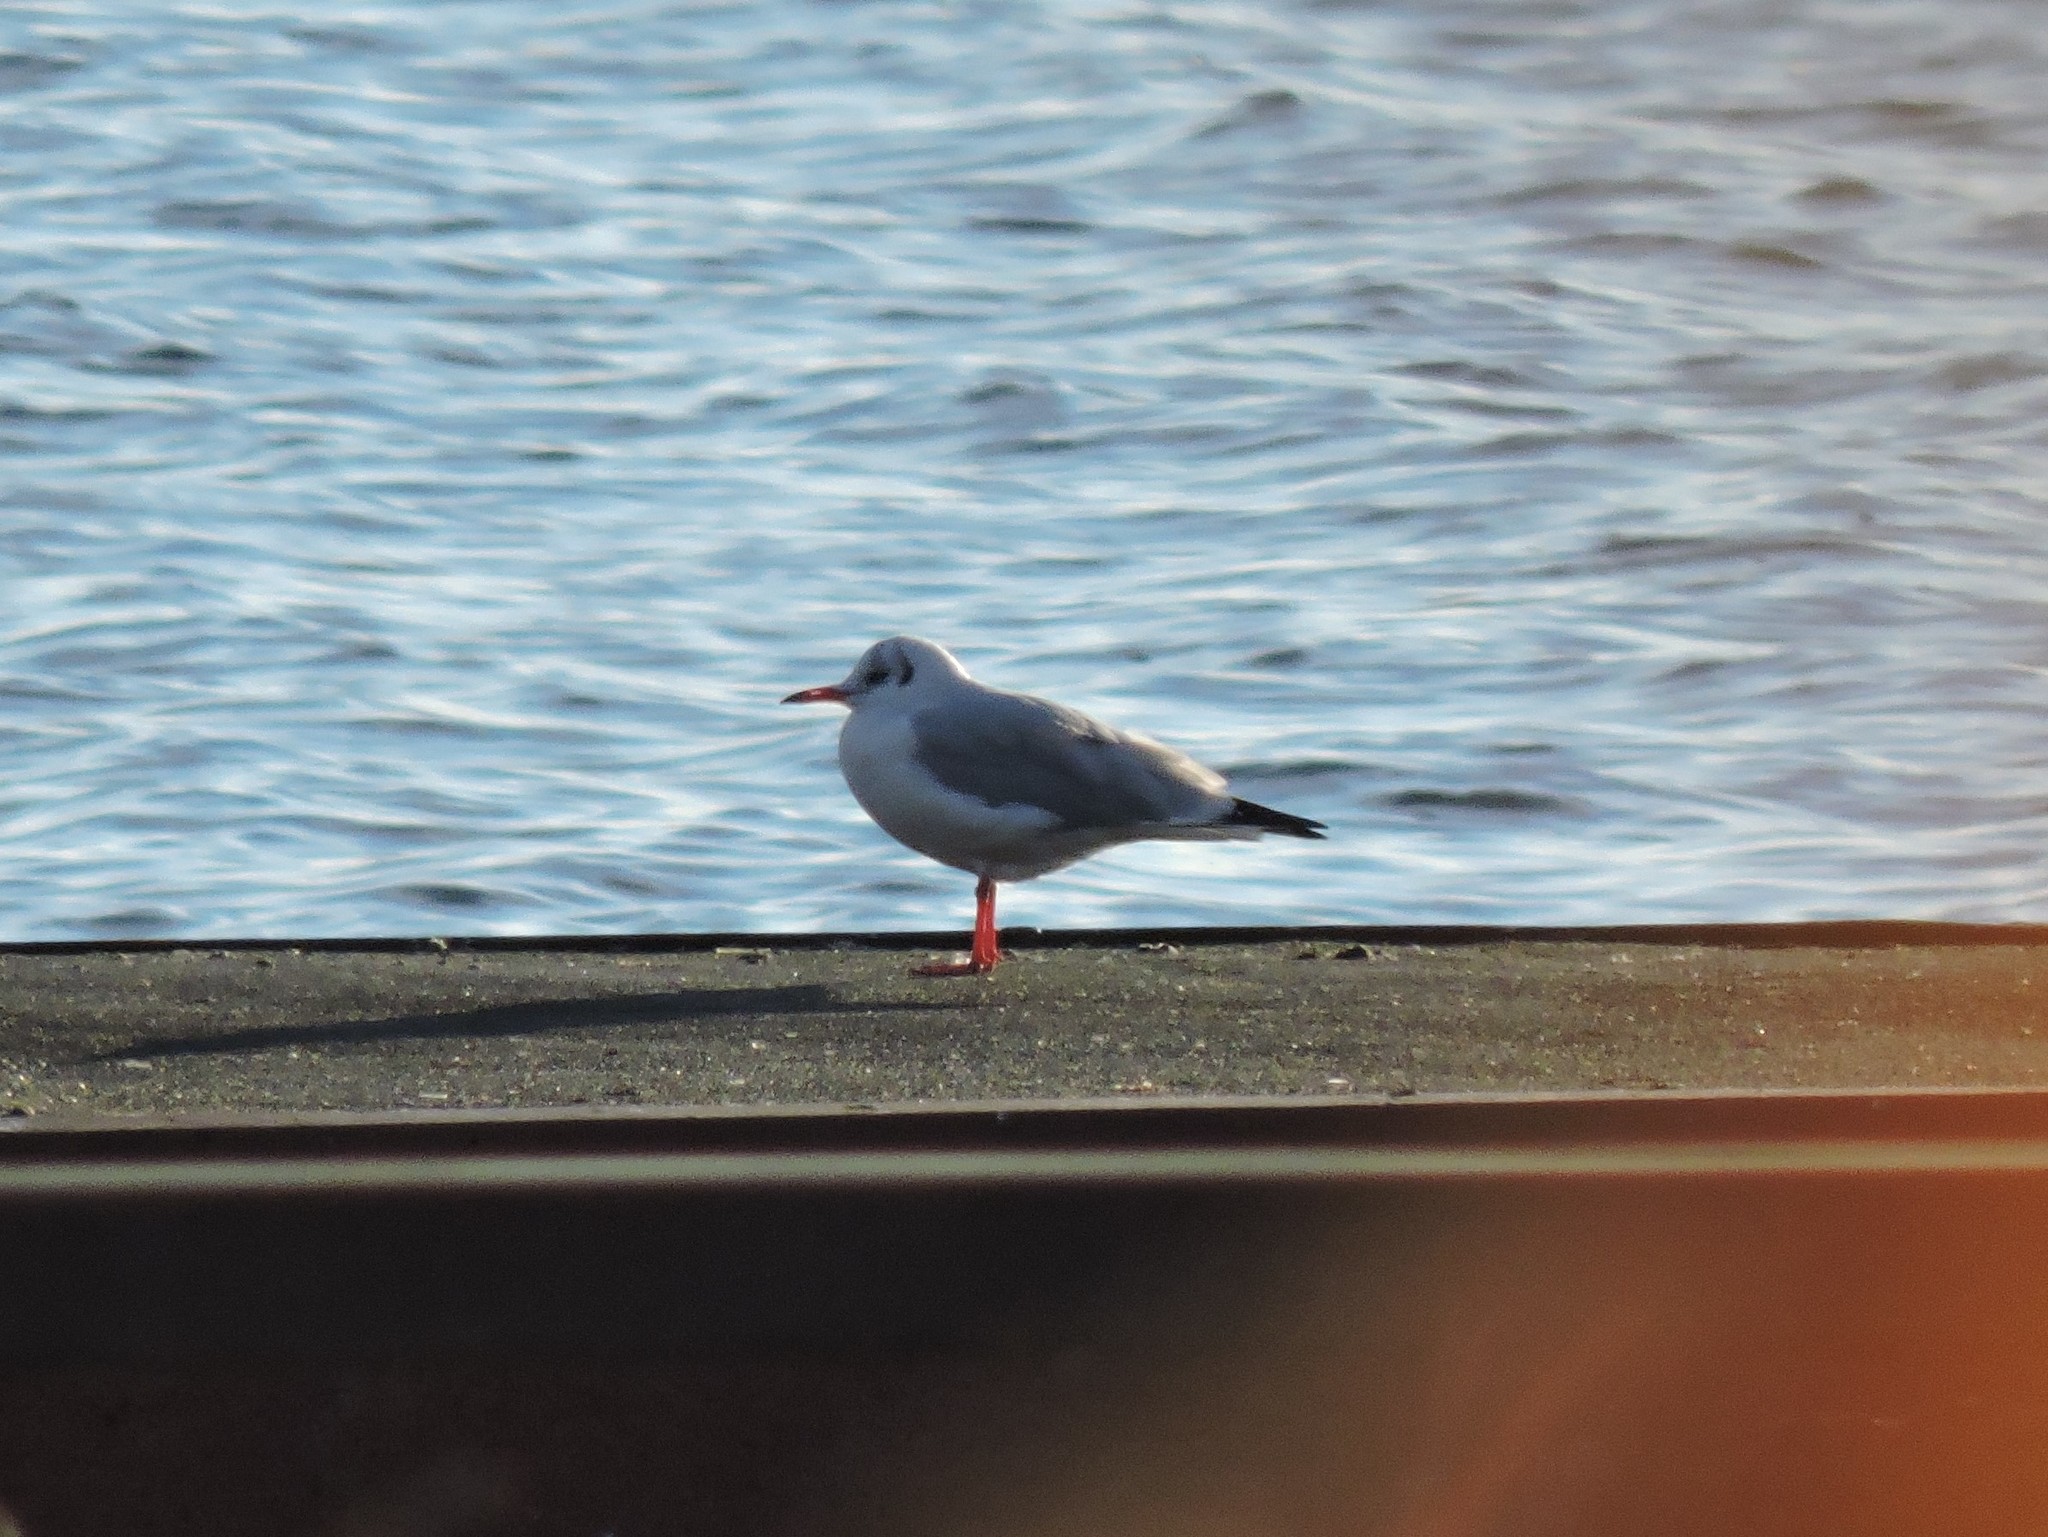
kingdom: Animalia
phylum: Chordata
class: Aves
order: Charadriiformes
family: Laridae
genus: Chroicocephalus
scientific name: Chroicocephalus ridibundus
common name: Black-headed gull
